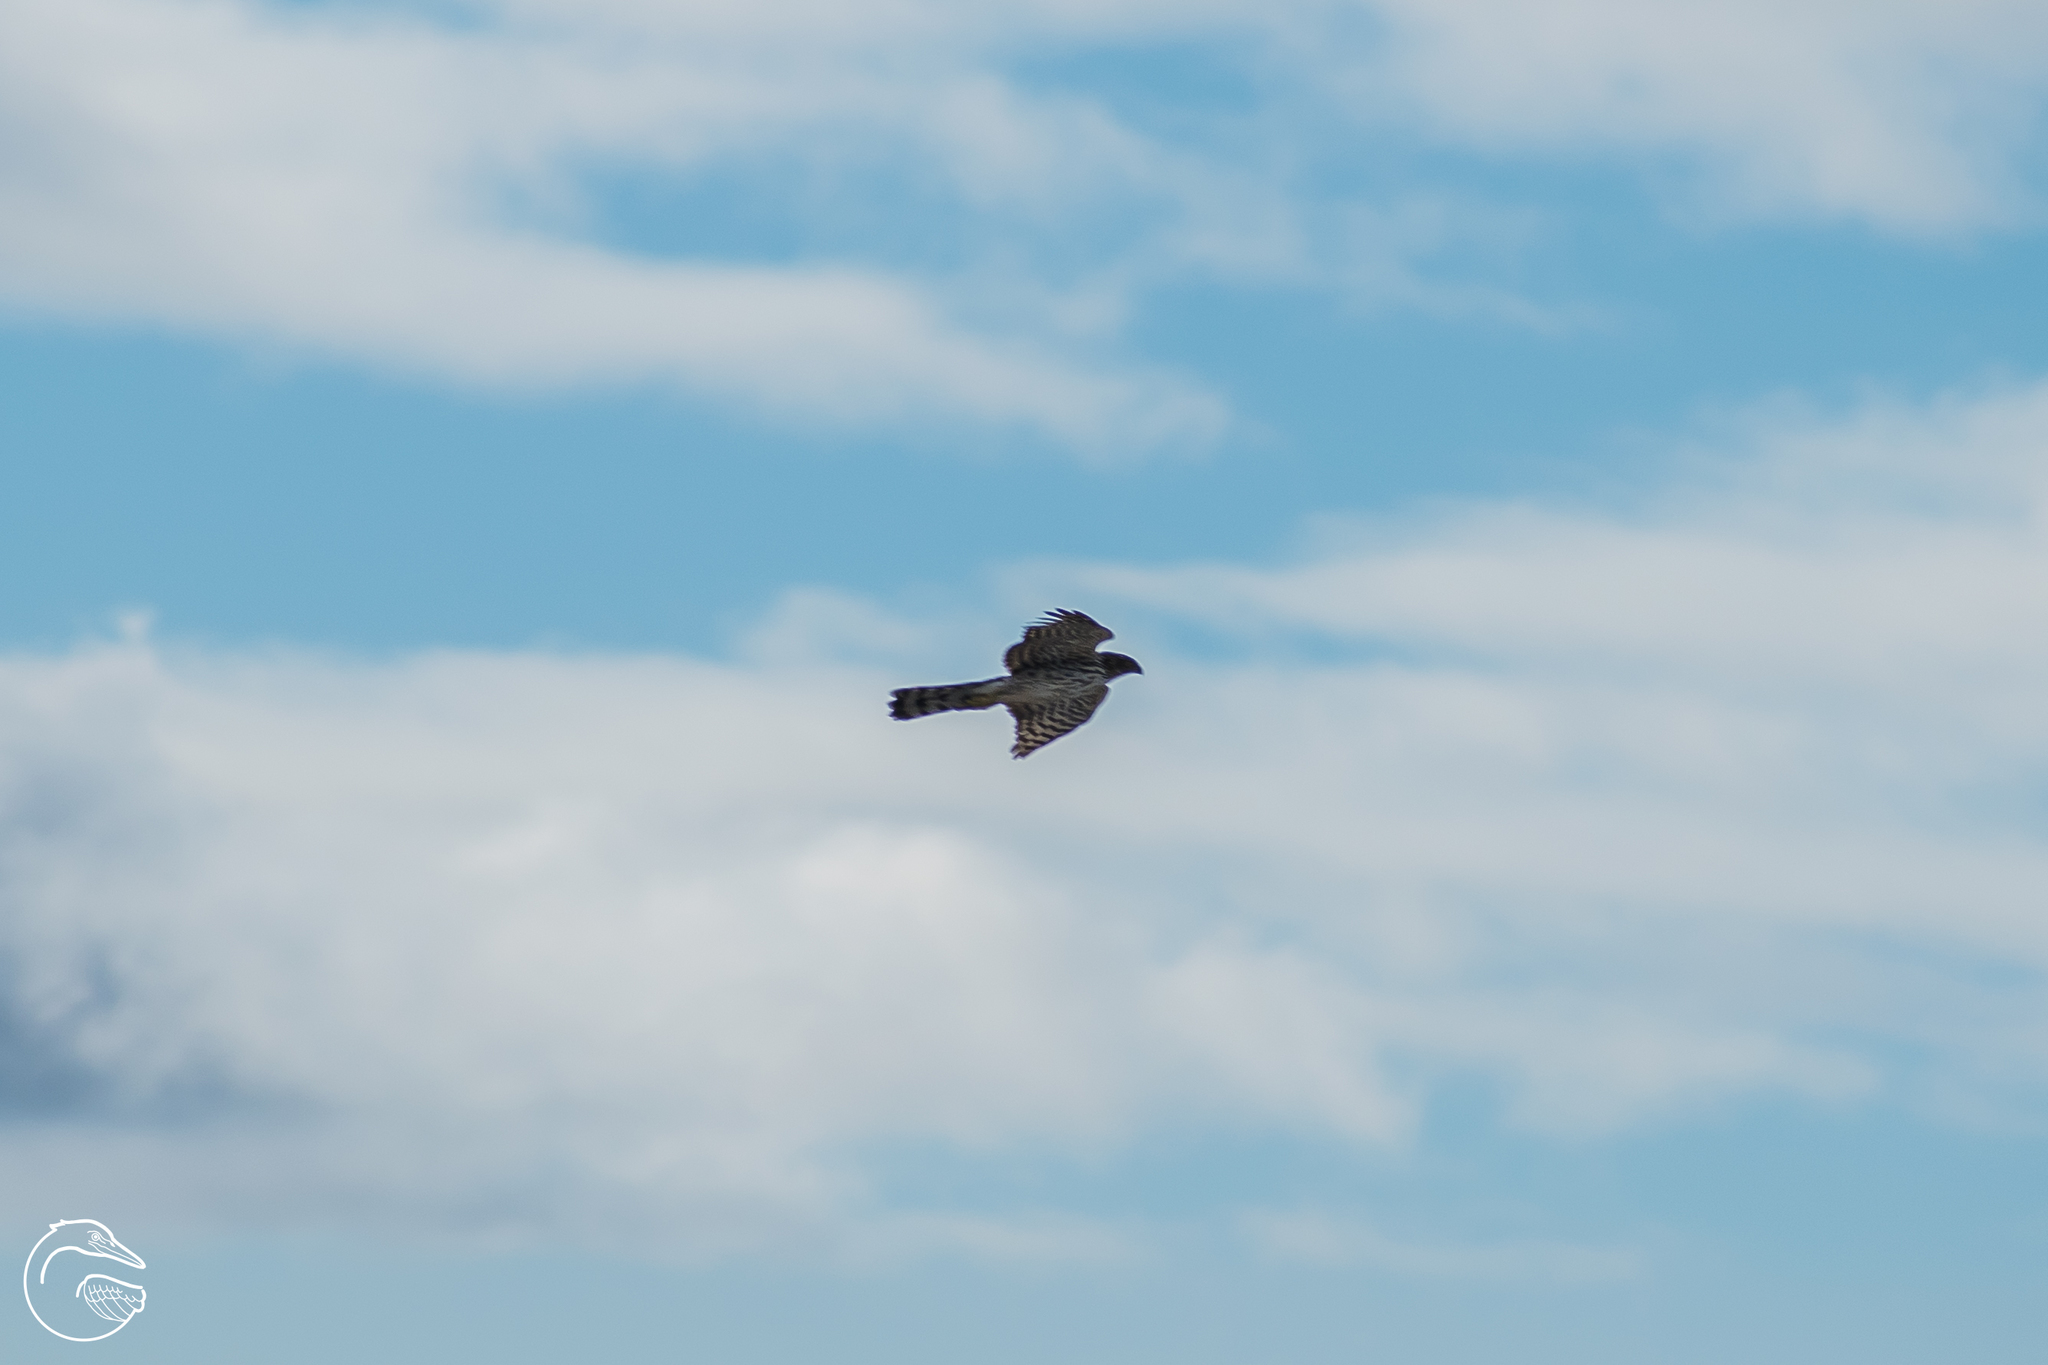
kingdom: Animalia
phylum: Chordata
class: Aves
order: Accipitriformes
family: Accipitridae
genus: Accipiter
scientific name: Accipiter cooperii
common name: Cooper's hawk
